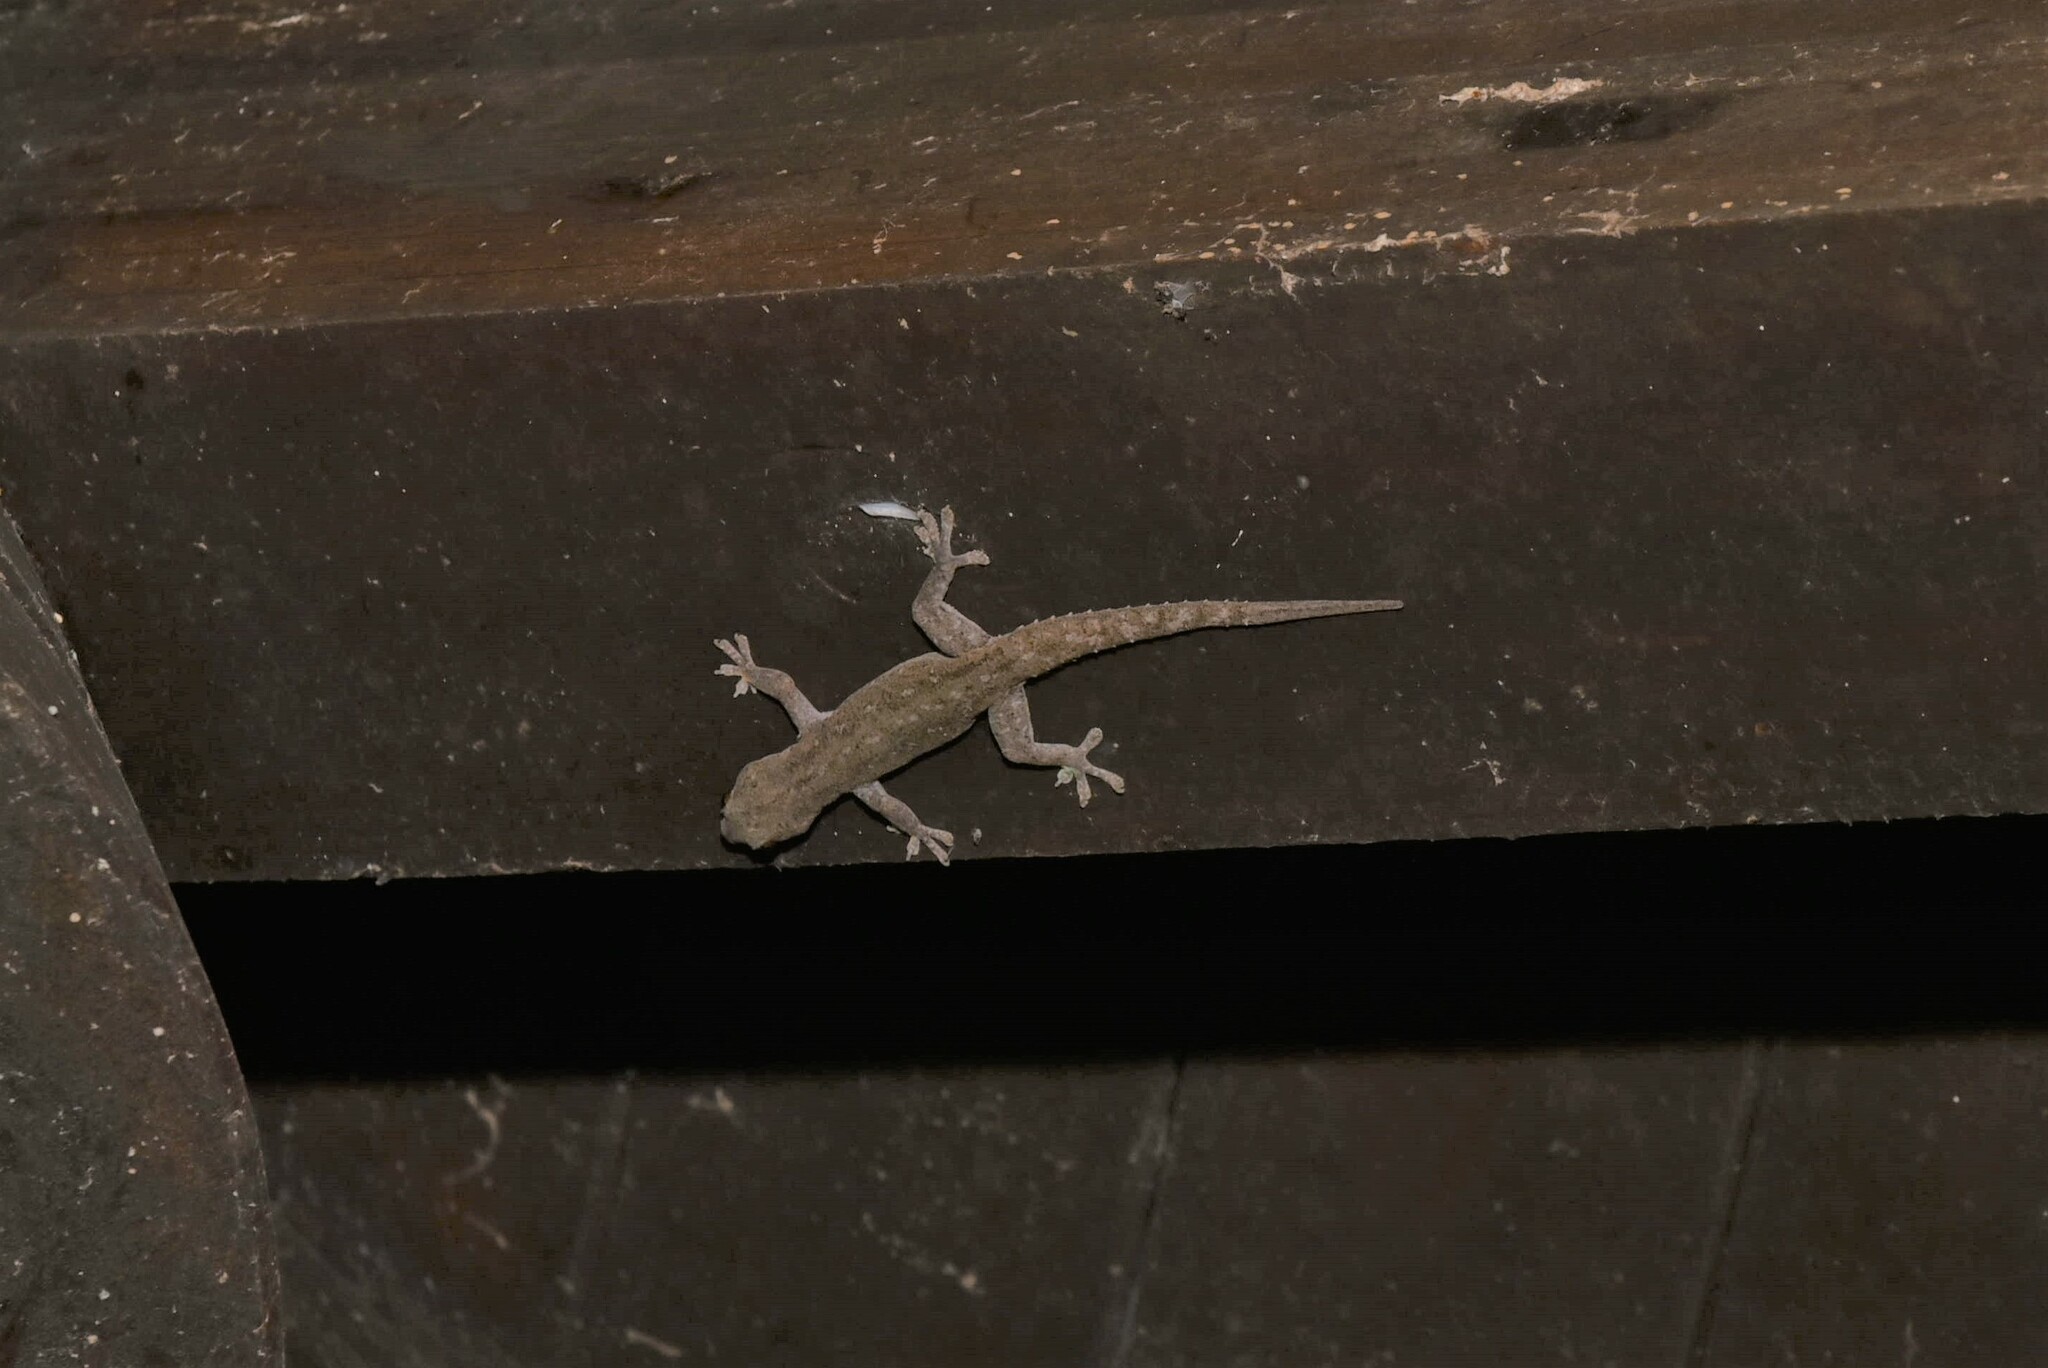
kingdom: Animalia
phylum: Chordata
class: Squamata
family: Gekkonidae
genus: Hemidactylus
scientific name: Hemidactylus frenatus
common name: Common house gecko
